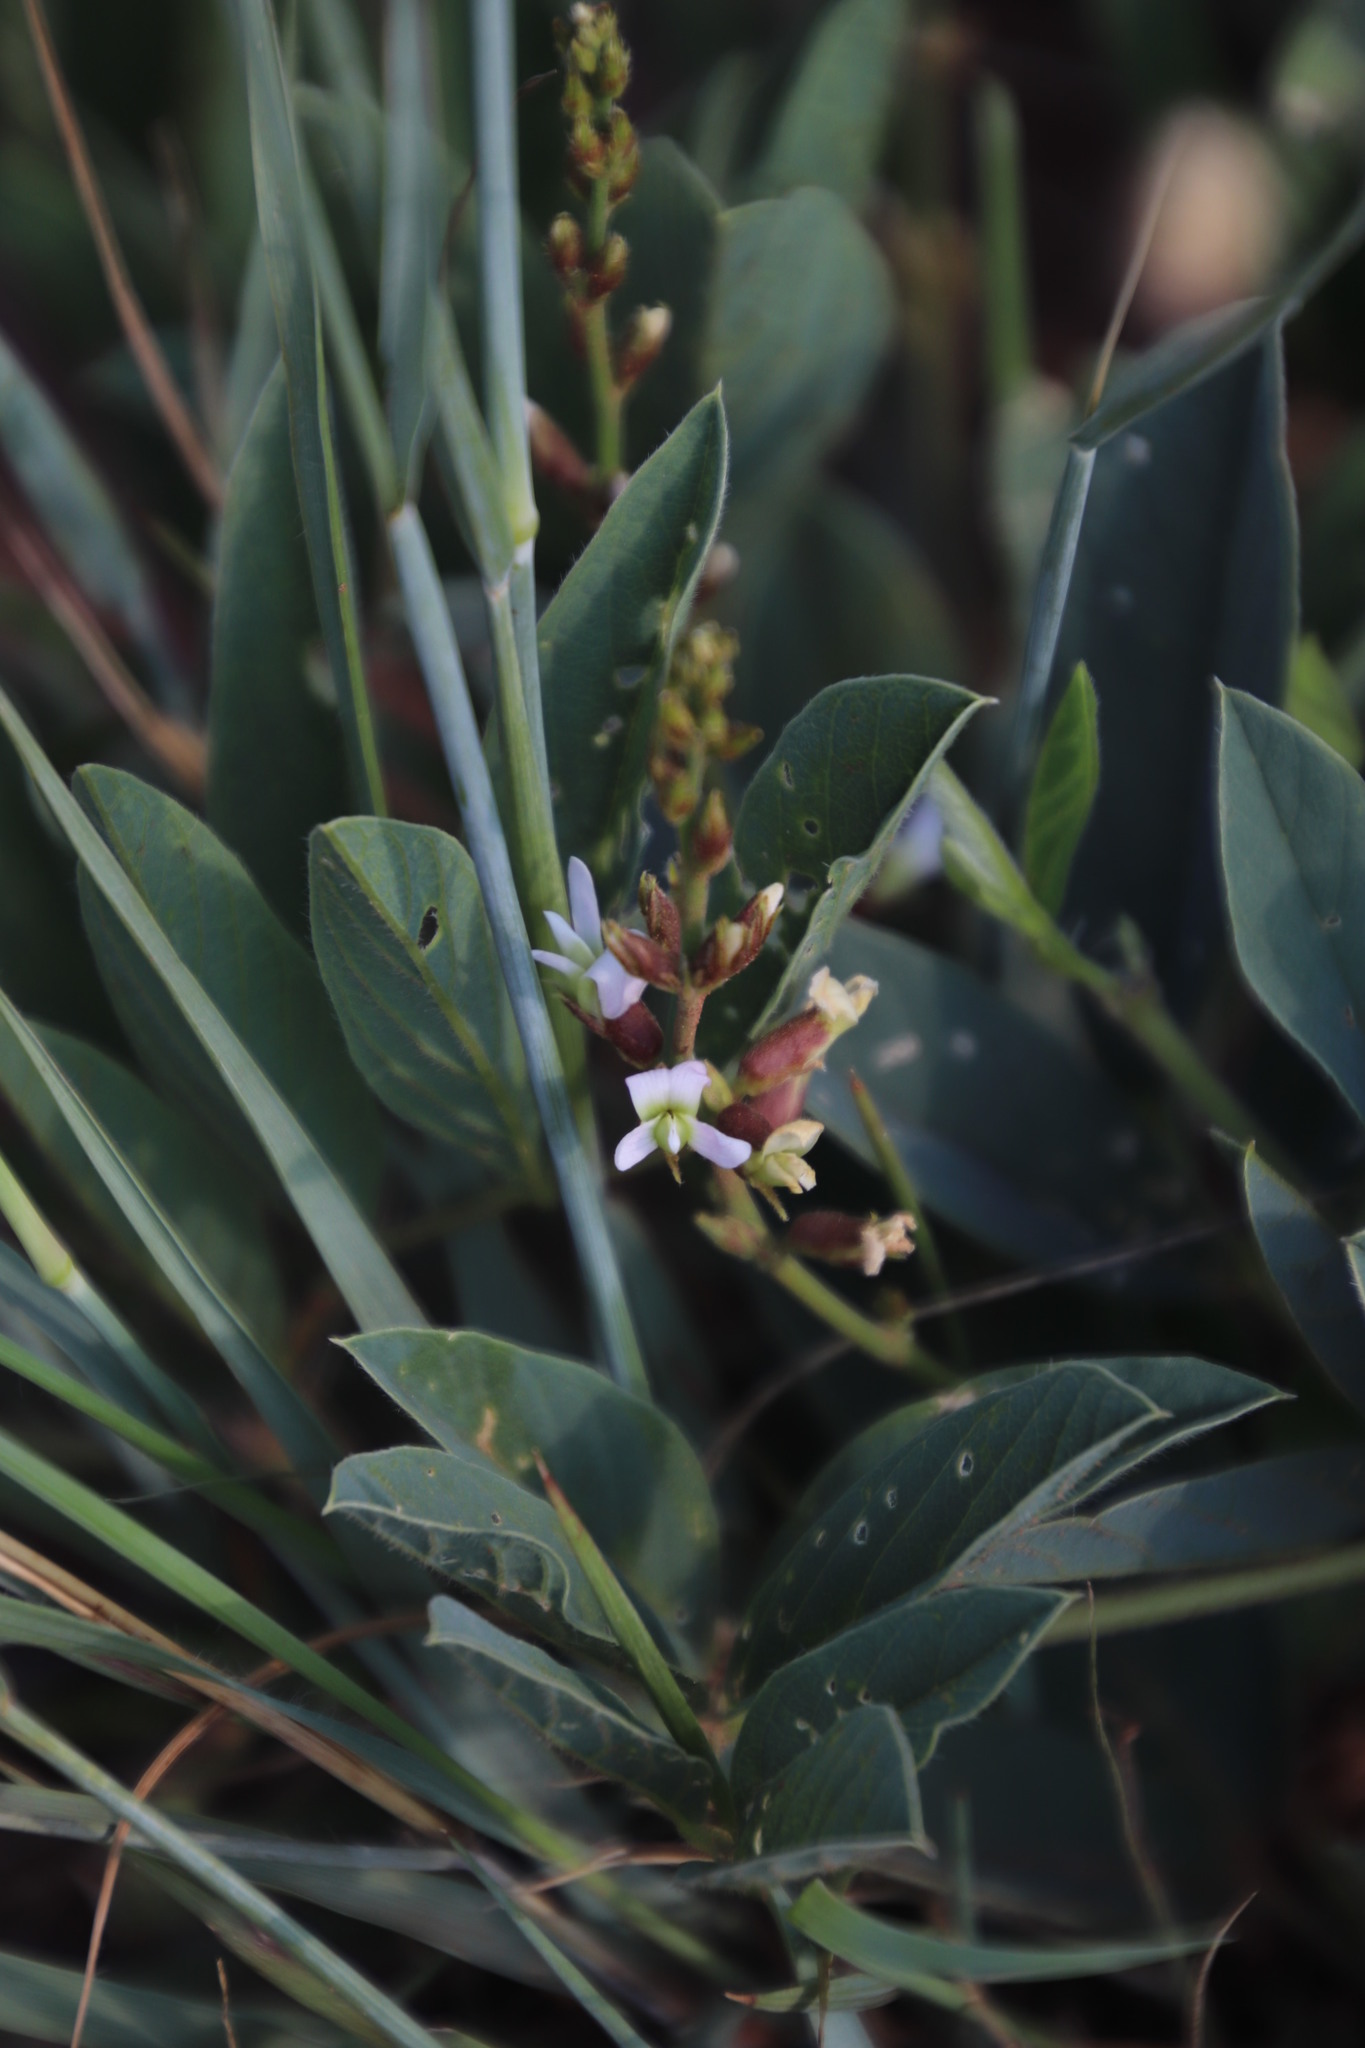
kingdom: Plantae
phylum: Tracheophyta
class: Magnoliopsida
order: Fabales
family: Fabaceae
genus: Ophrestia
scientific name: Ophrestia oblongifolia
